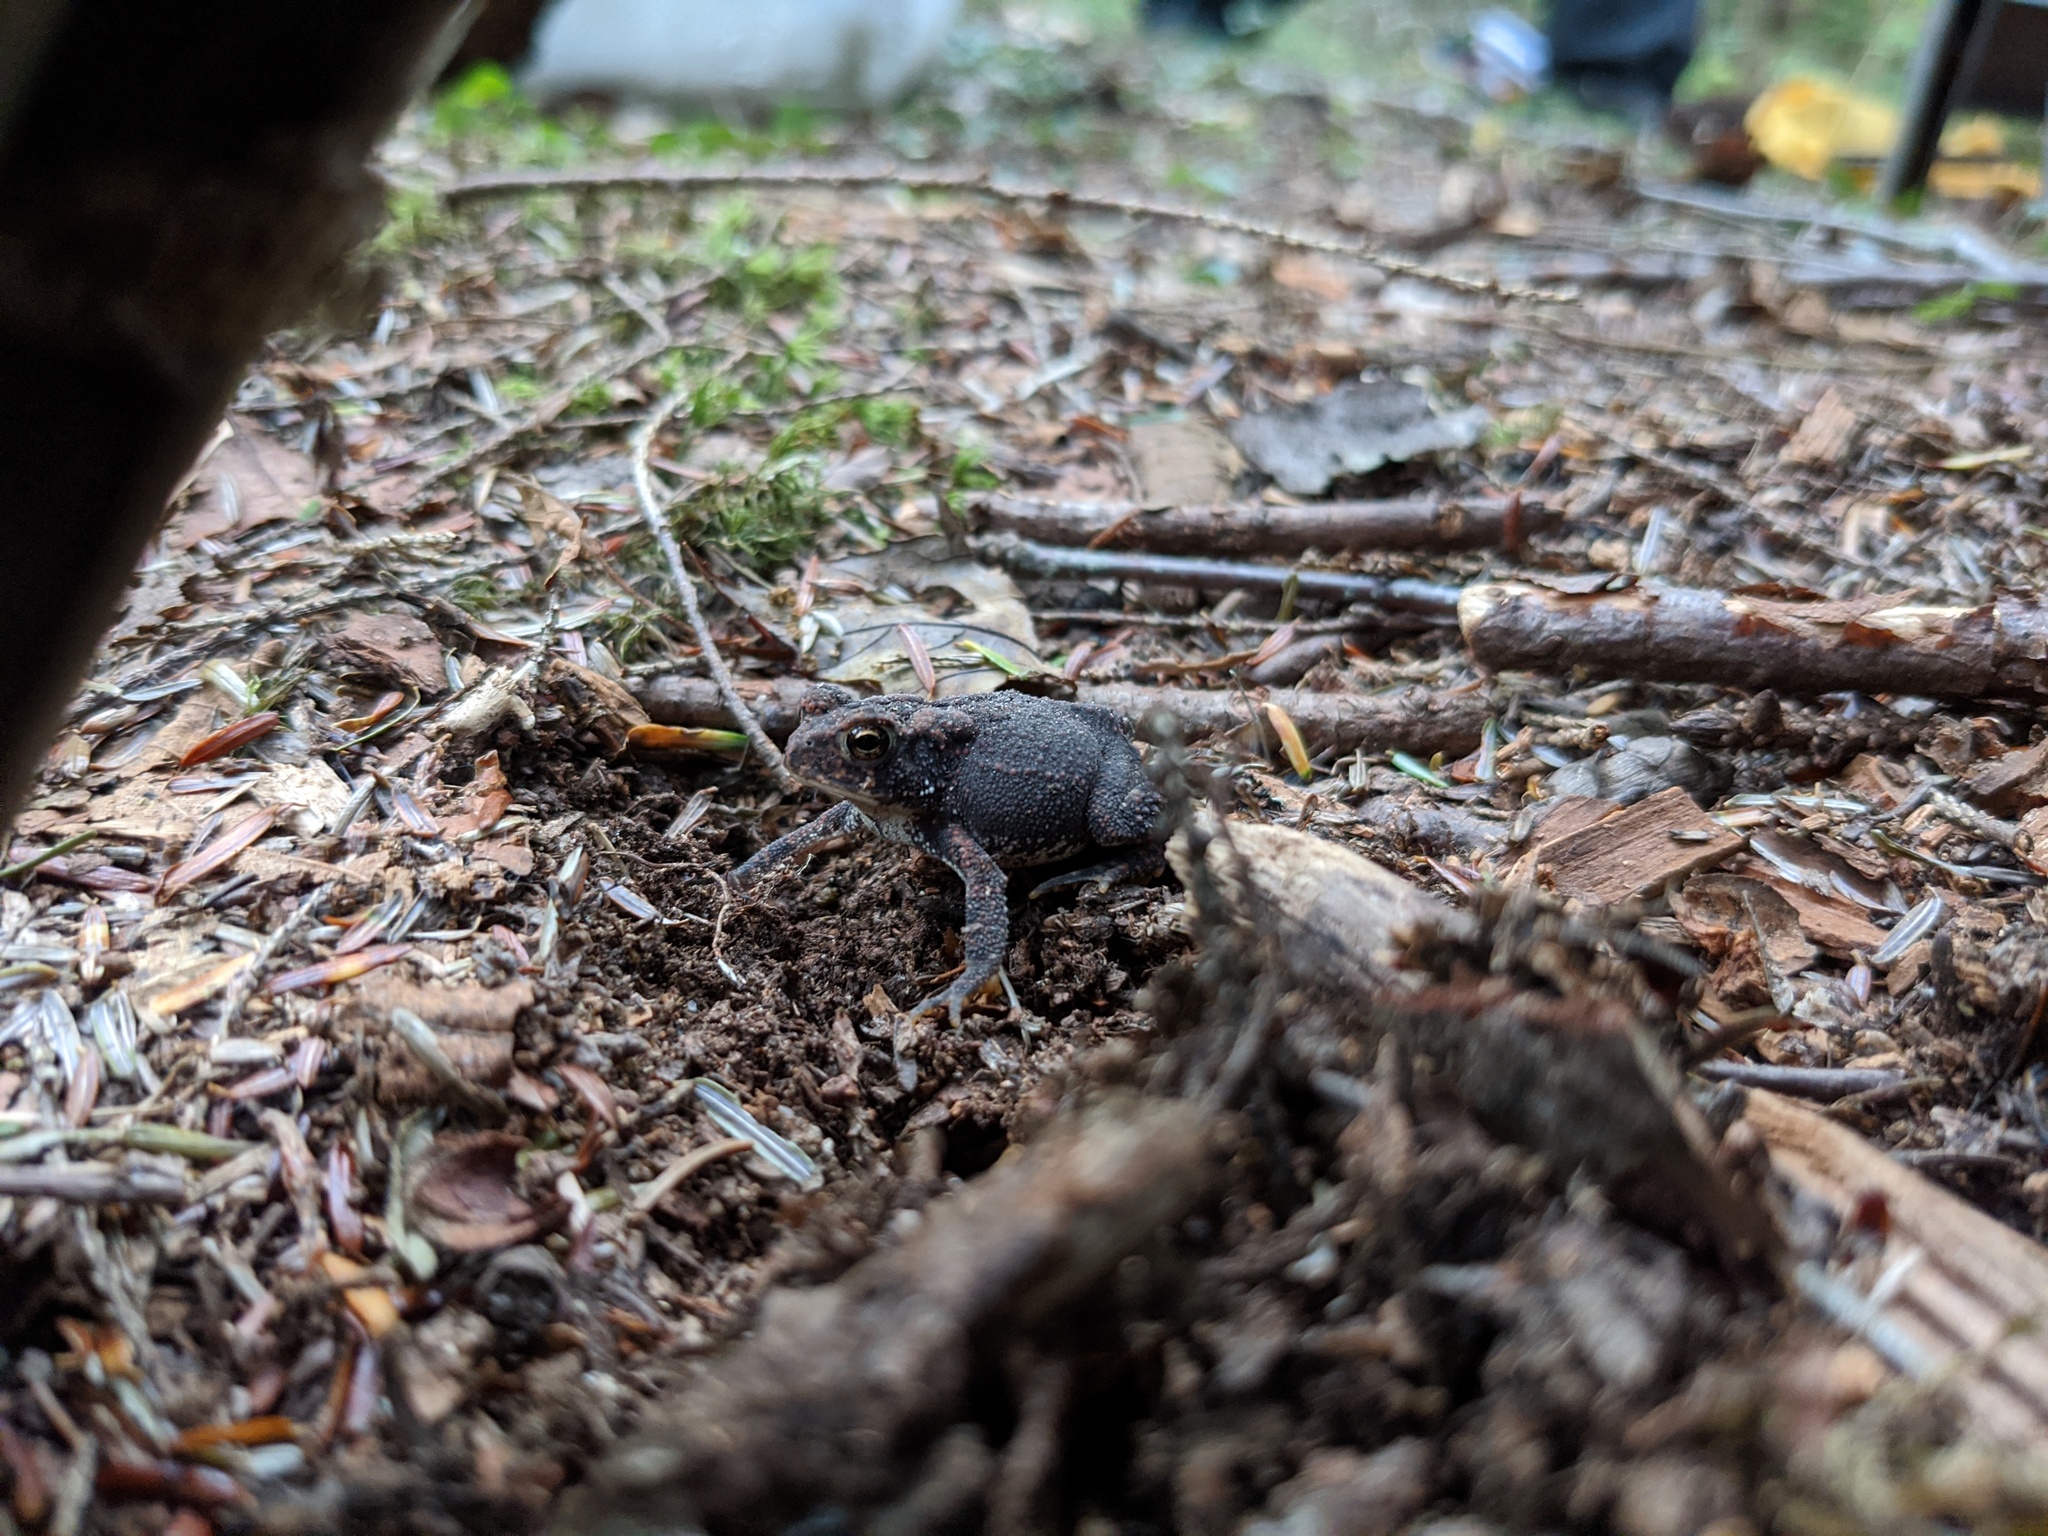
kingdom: Animalia
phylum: Chordata
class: Amphibia
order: Anura
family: Bufonidae
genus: Anaxyrus
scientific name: Anaxyrus americanus
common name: American toad
